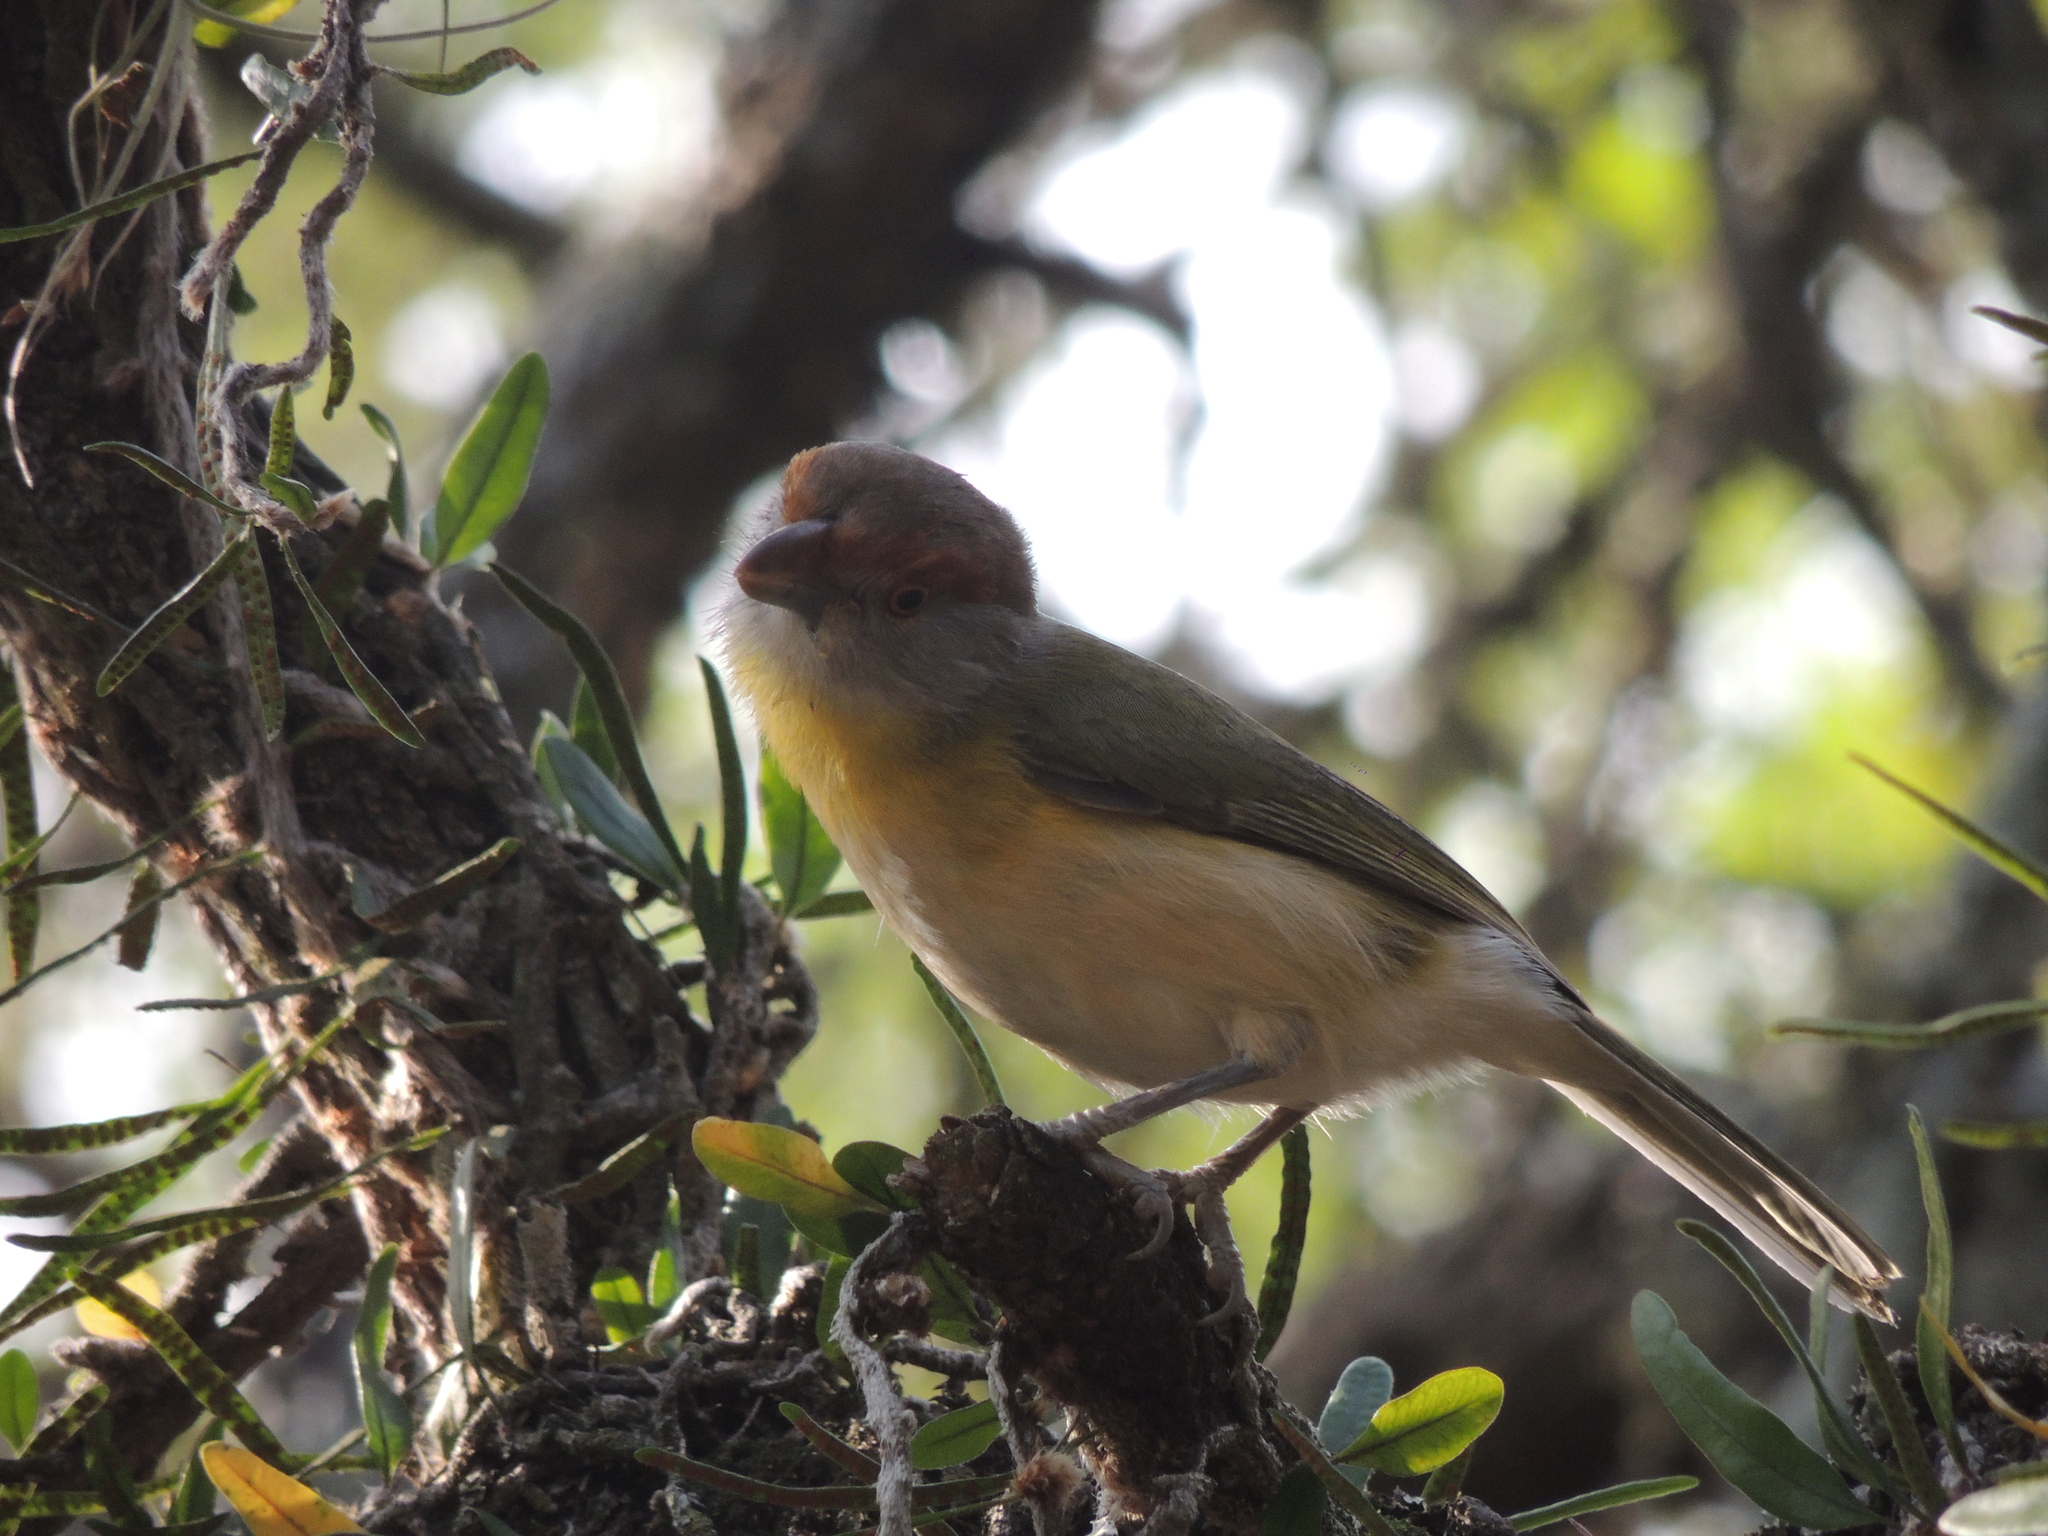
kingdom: Animalia
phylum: Chordata
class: Aves
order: Passeriformes
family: Vireonidae
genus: Cyclarhis
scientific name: Cyclarhis gujanensis
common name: Rufous-browed peppershrike
